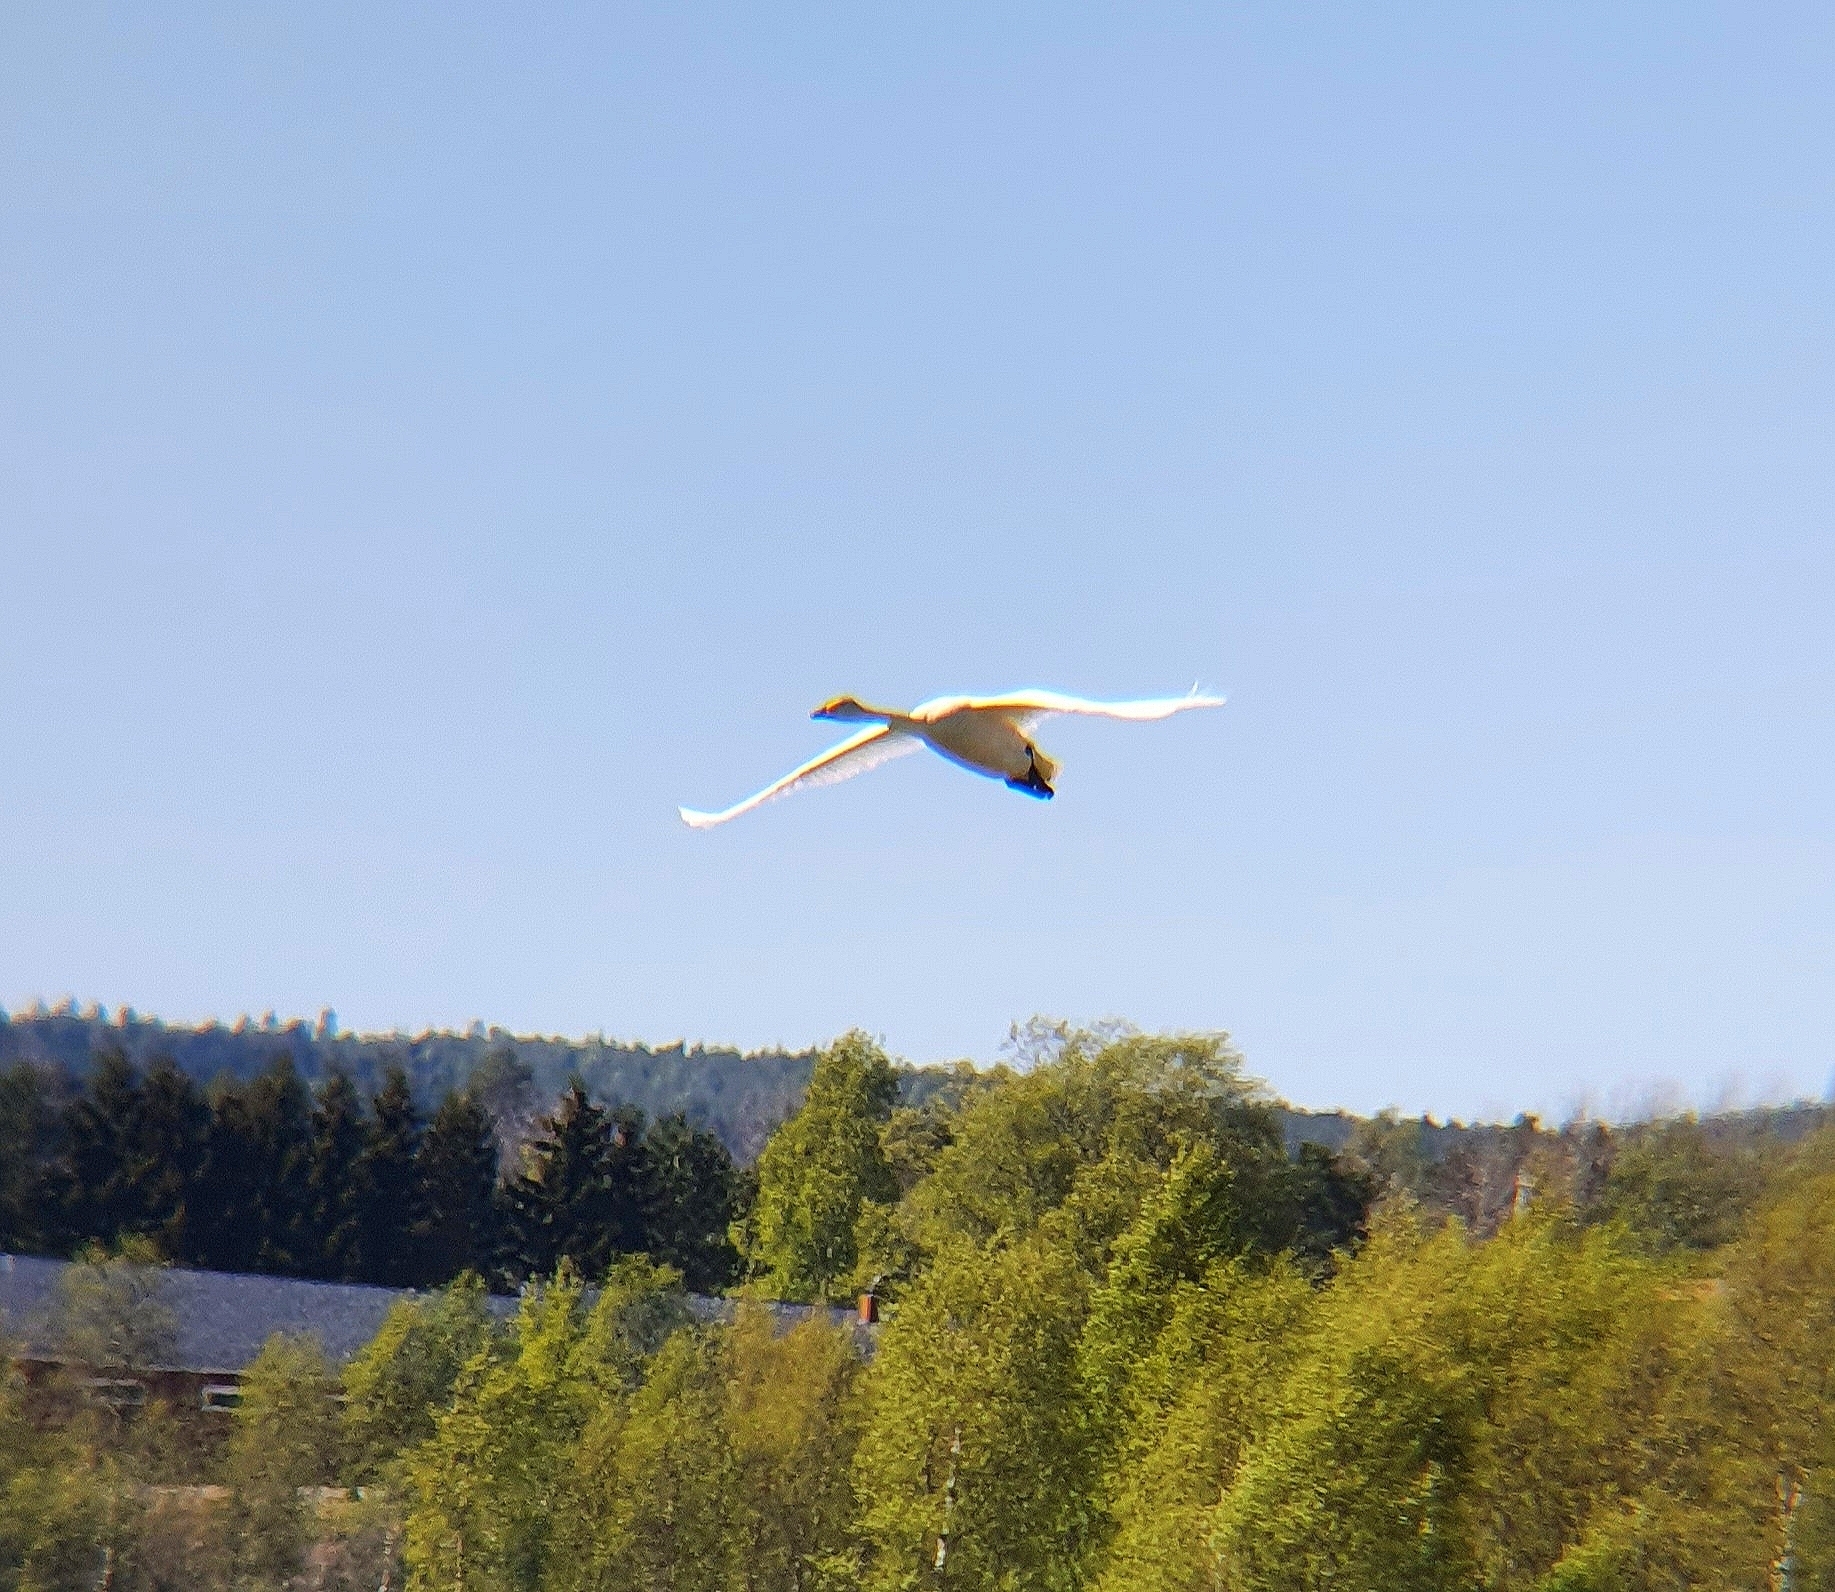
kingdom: Animalia
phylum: Chordata
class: Aves
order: Anseriformes
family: Anatidae
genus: Cygnus
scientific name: Cygnus cygnus
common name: Whooper swan
